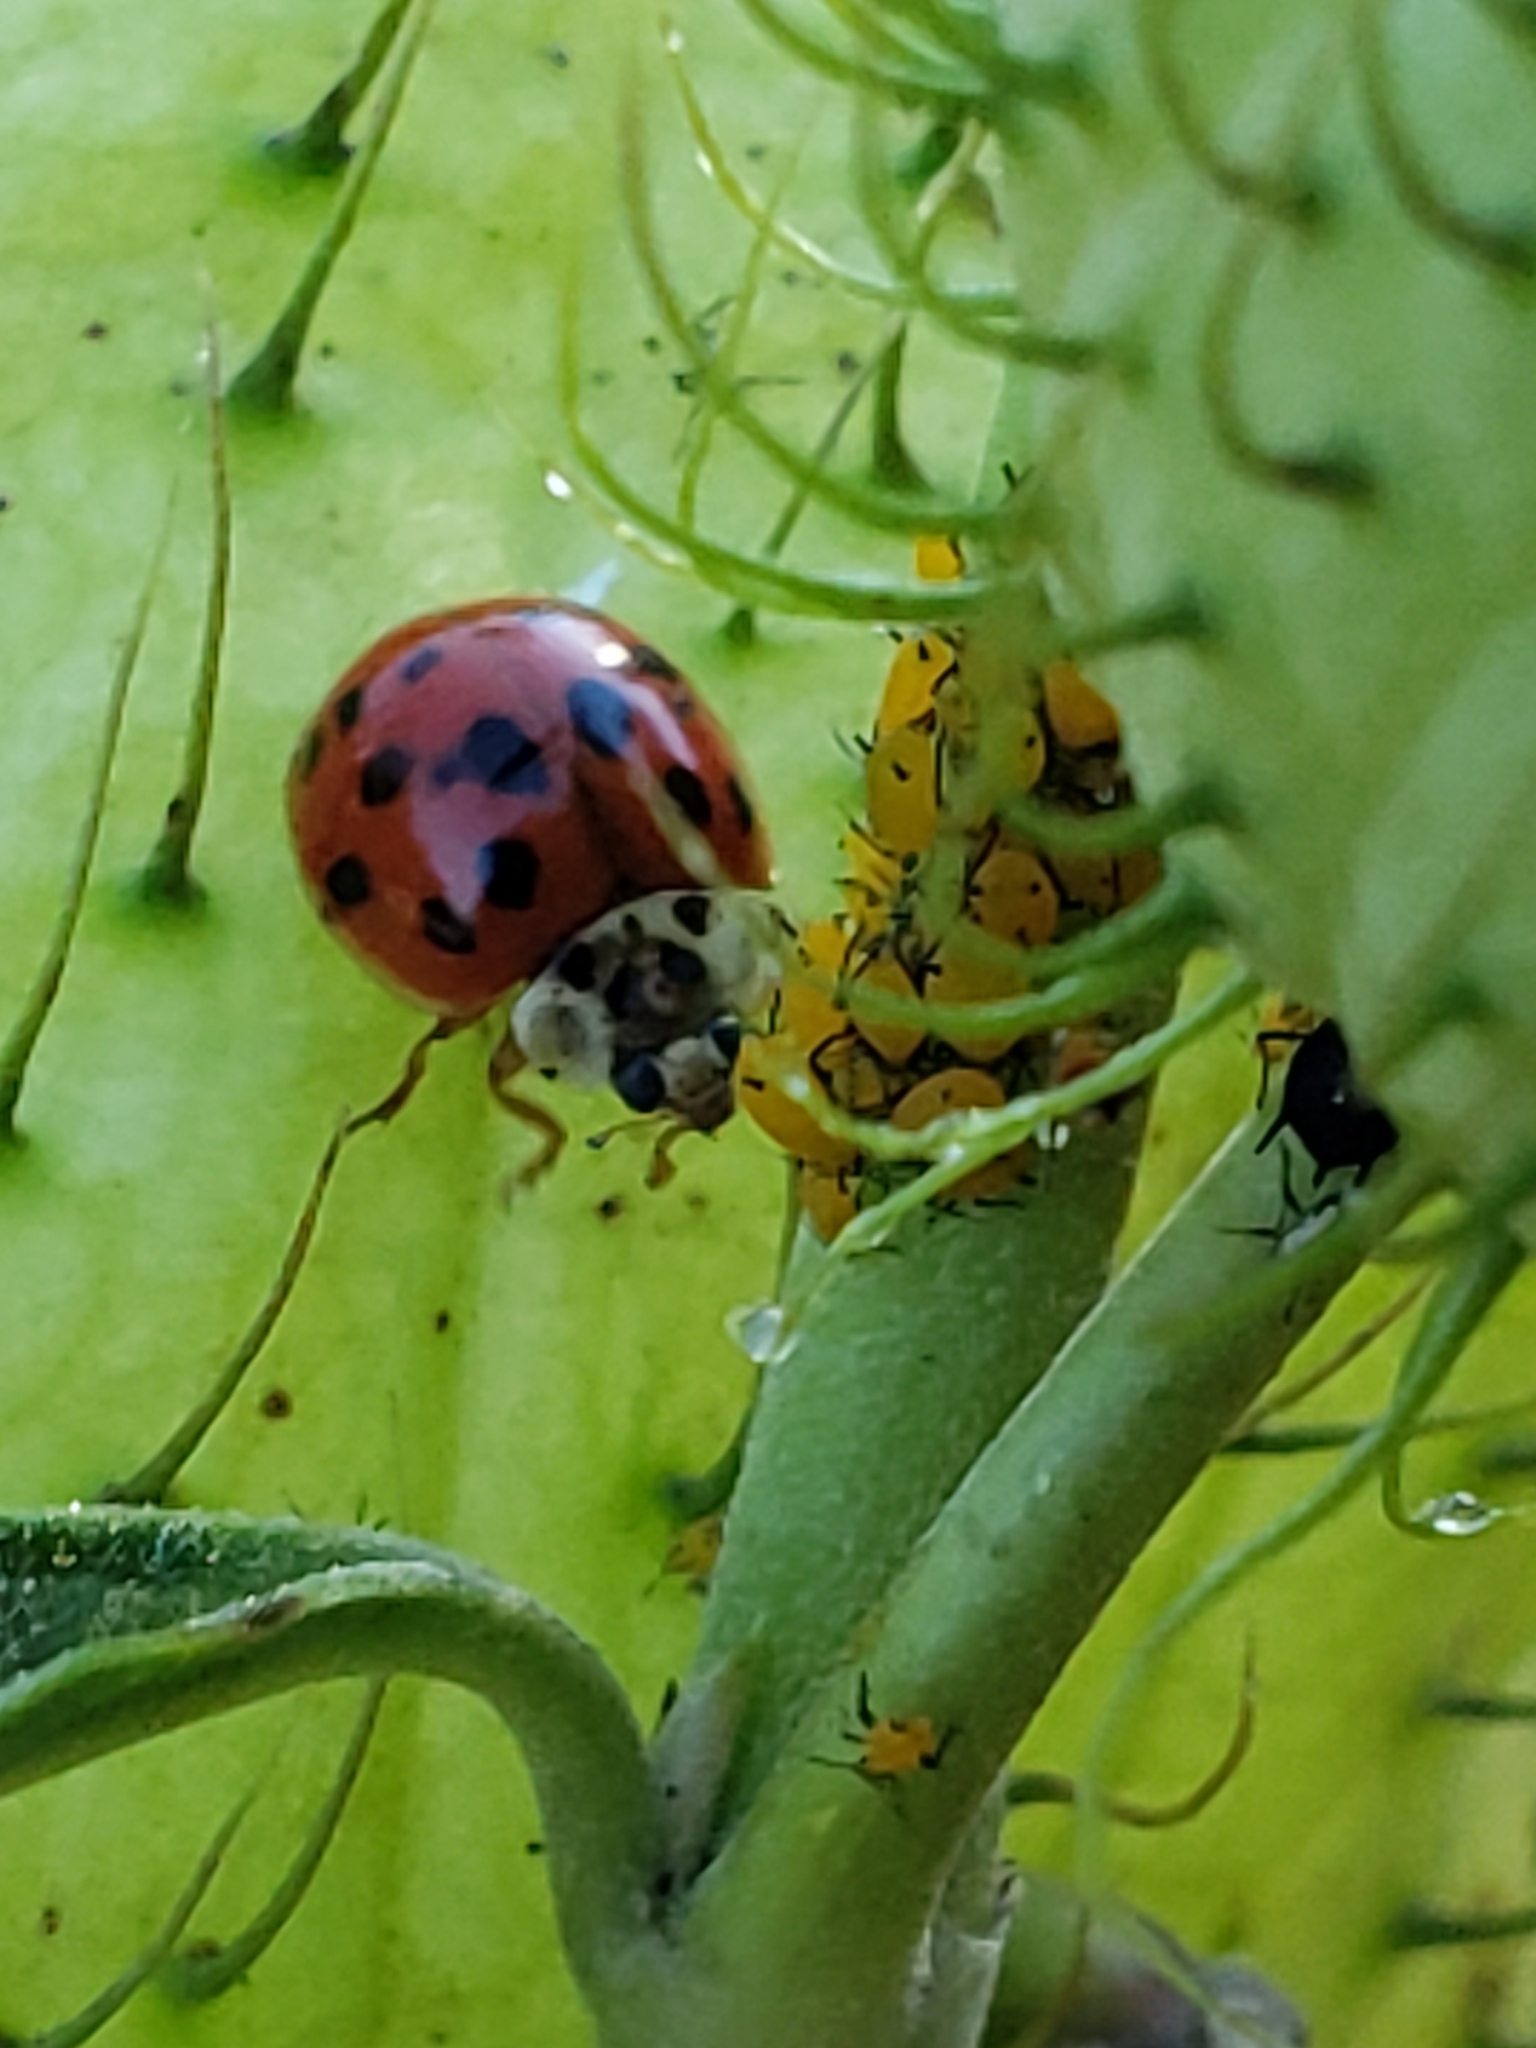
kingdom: Animalia
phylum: Arthropoda
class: Insecta
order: Coleoptera
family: Coccinellidae
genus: Harmonia
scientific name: Harmonia axyridis
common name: Harlequin ladybird
